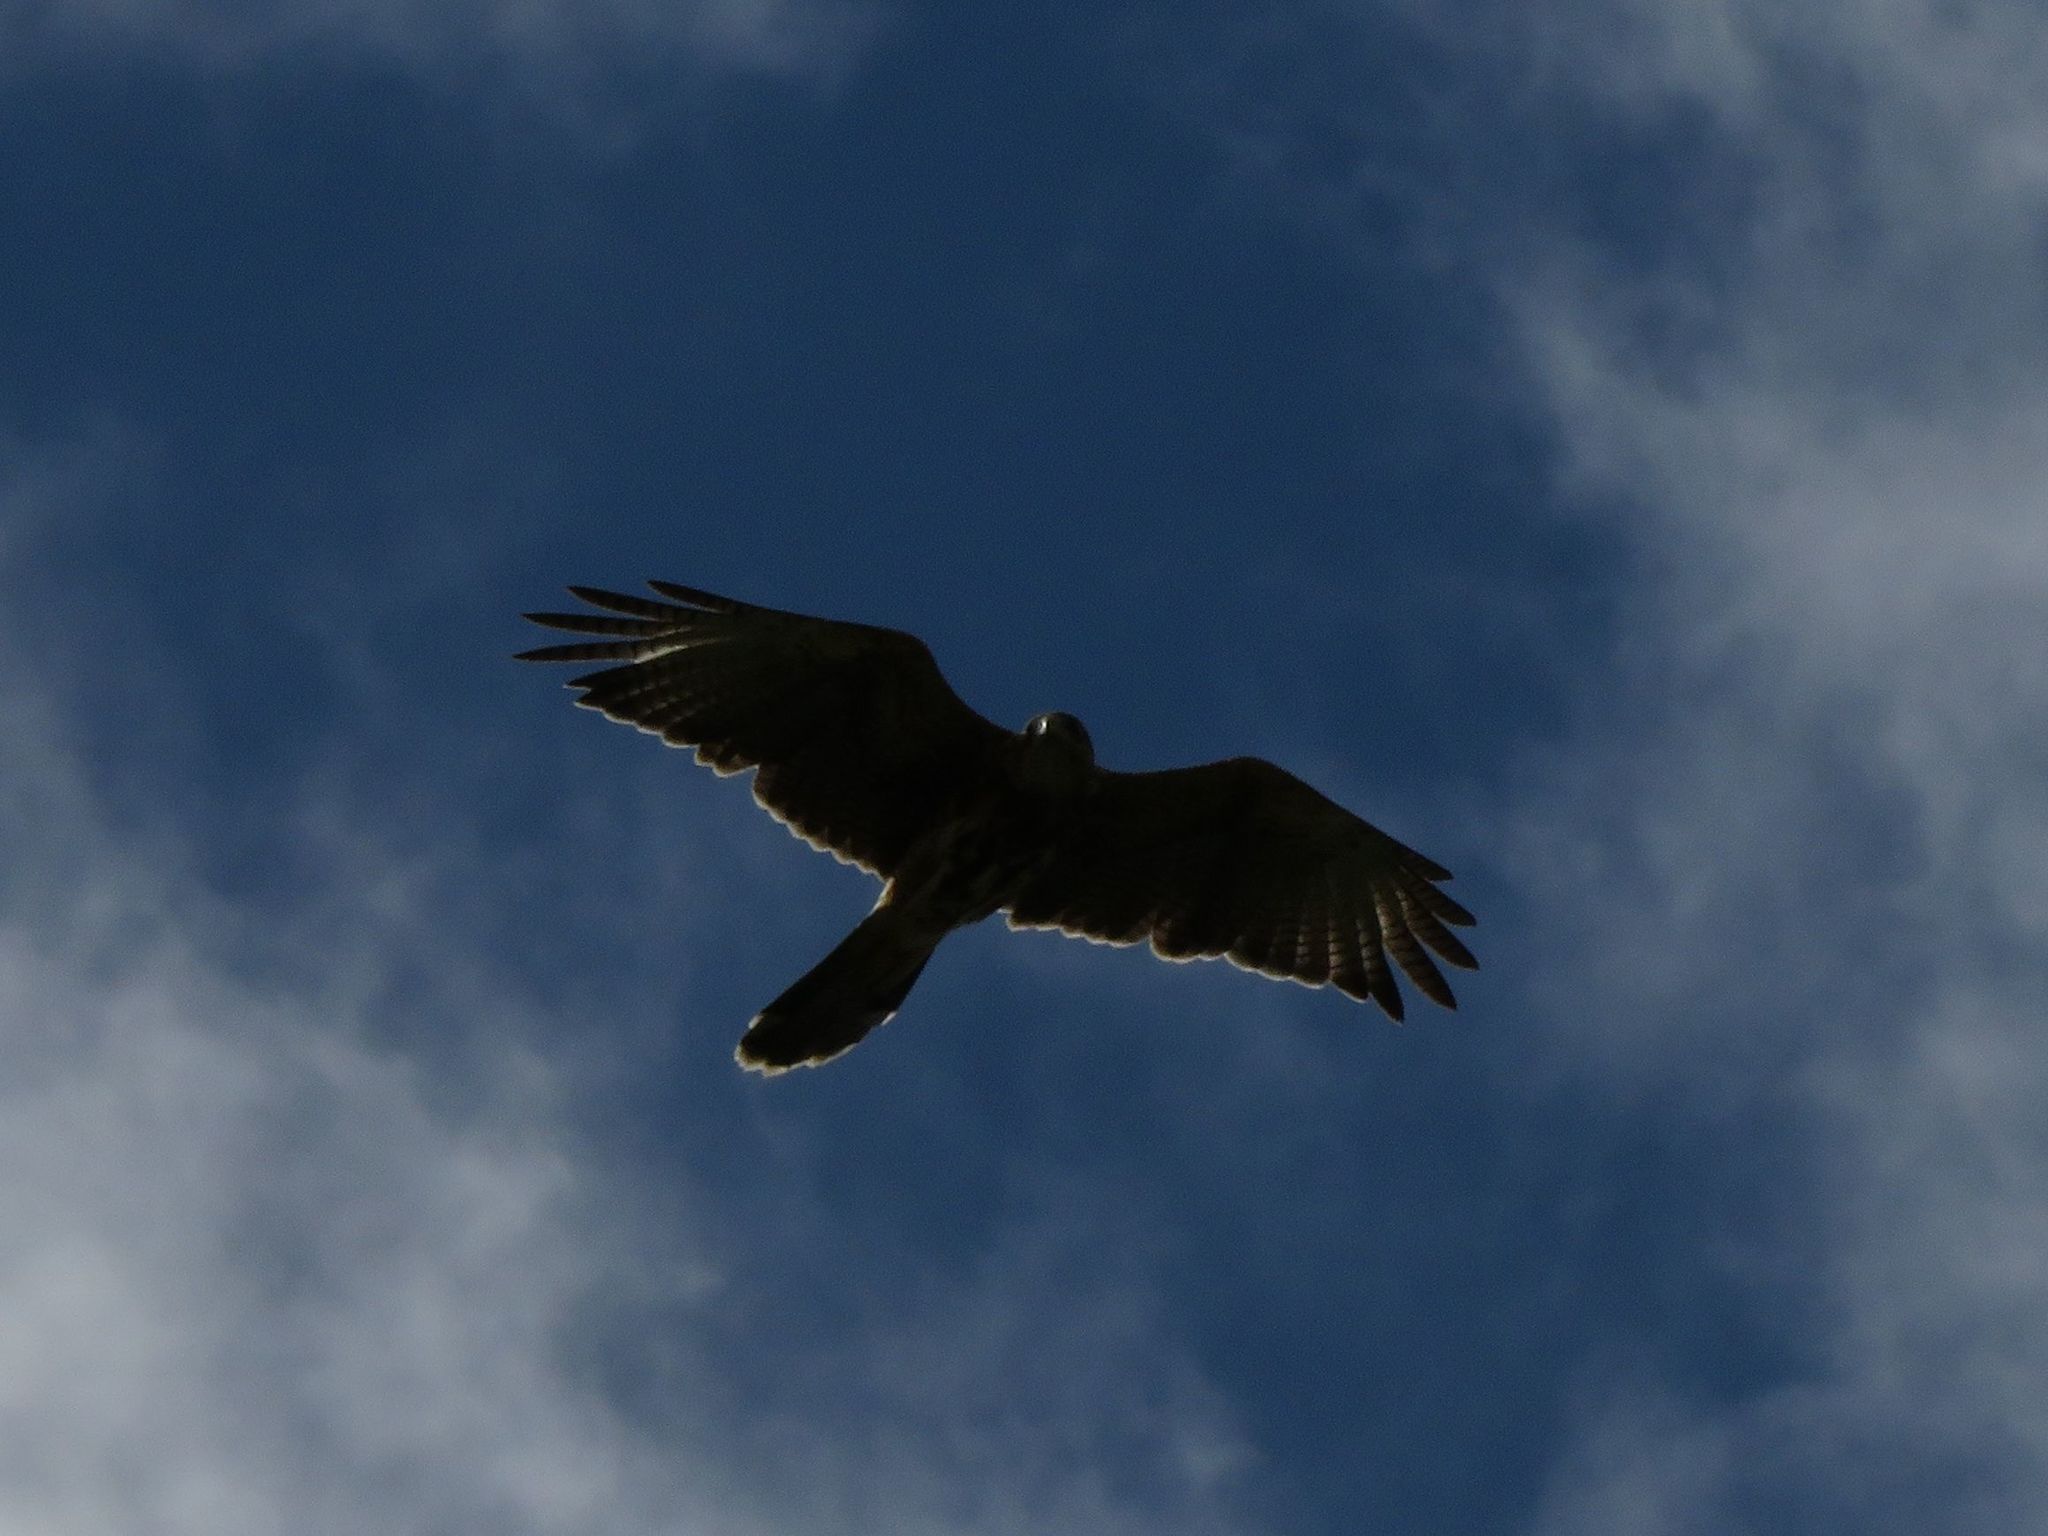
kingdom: Animalia
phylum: Chordata
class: Aves
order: Accipitriformes
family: Accipitridae
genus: Parabuteo
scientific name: Parabuteo unicinctus
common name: Harris's hawk
